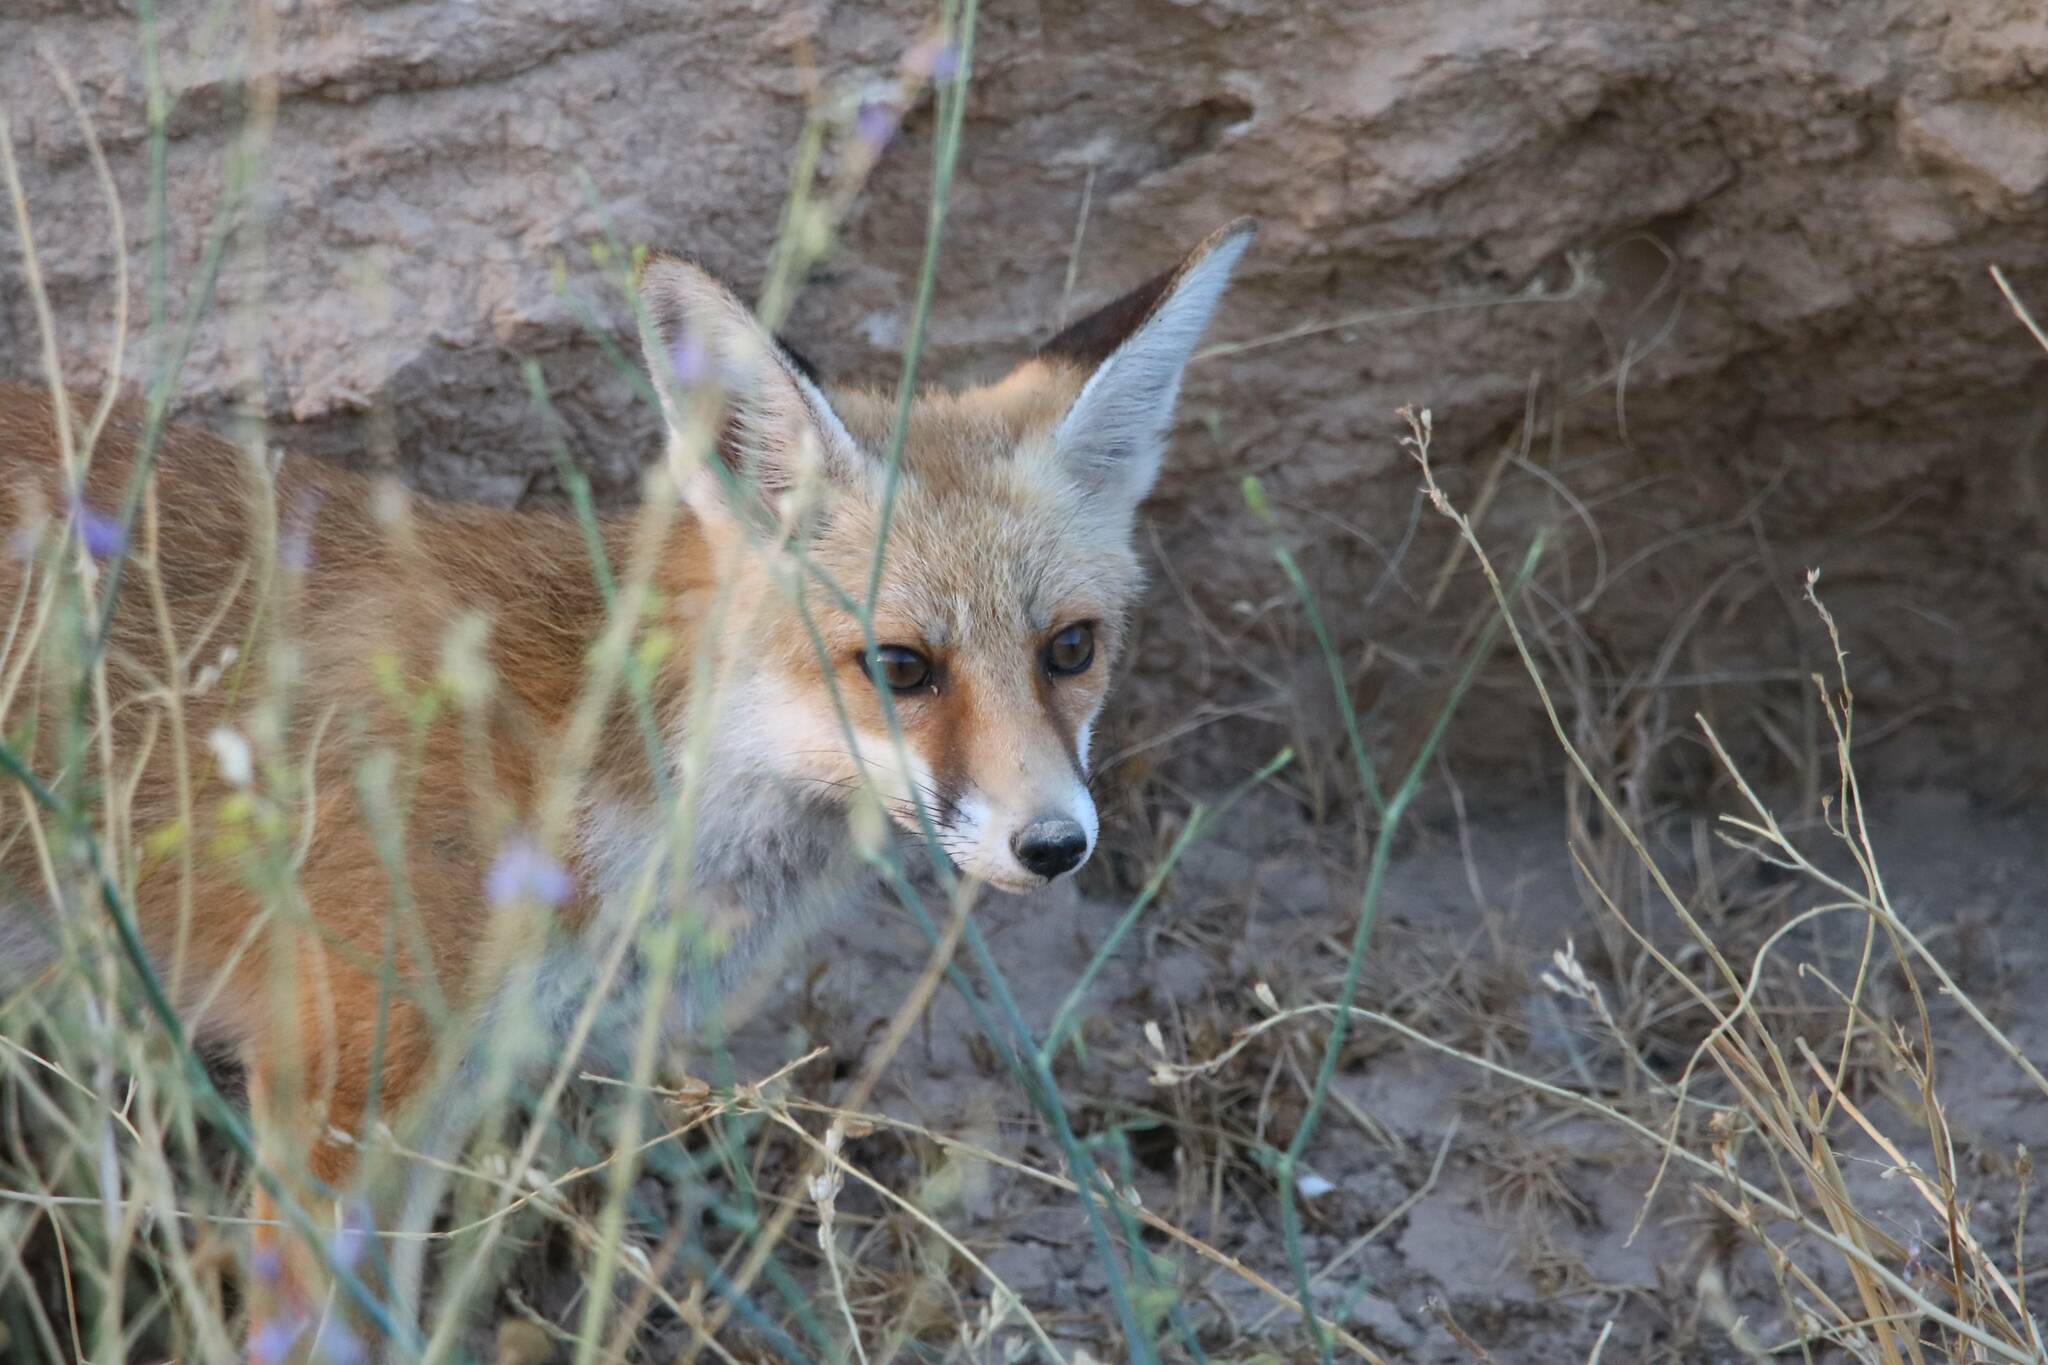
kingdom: Animalia
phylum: Chordata
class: Mammalia
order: Carnivora
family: Canidae
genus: Vulpes
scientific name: Vulpes vulpes
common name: Red fox
